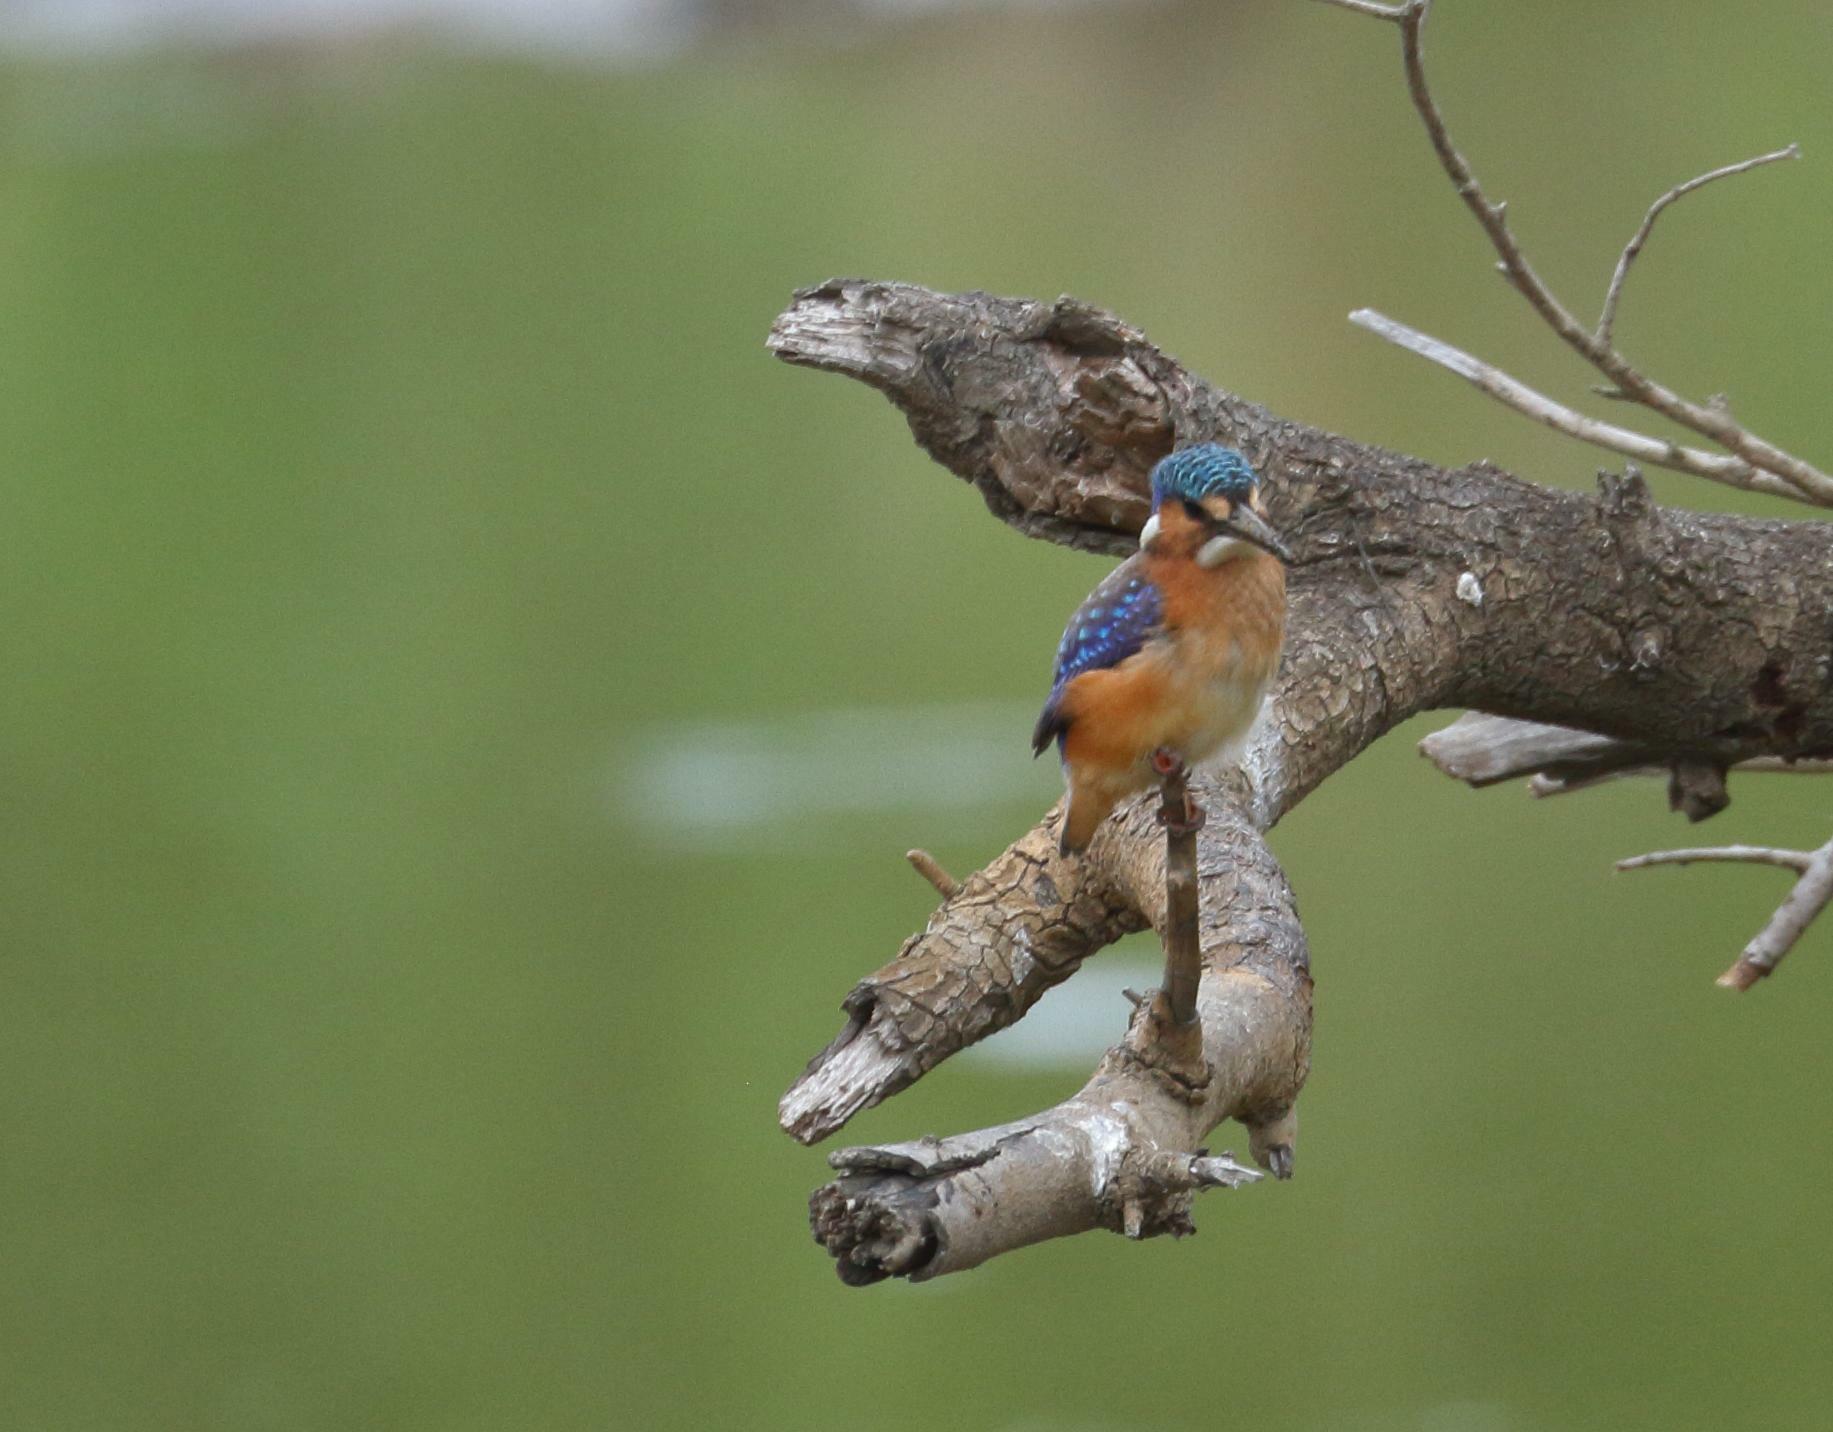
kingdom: Animalia
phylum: Chordata
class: Aves
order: Coraciiformes
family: Alcedinidae
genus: Corythornis
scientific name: Corythornis cristatus
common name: Malachite kingfisher
